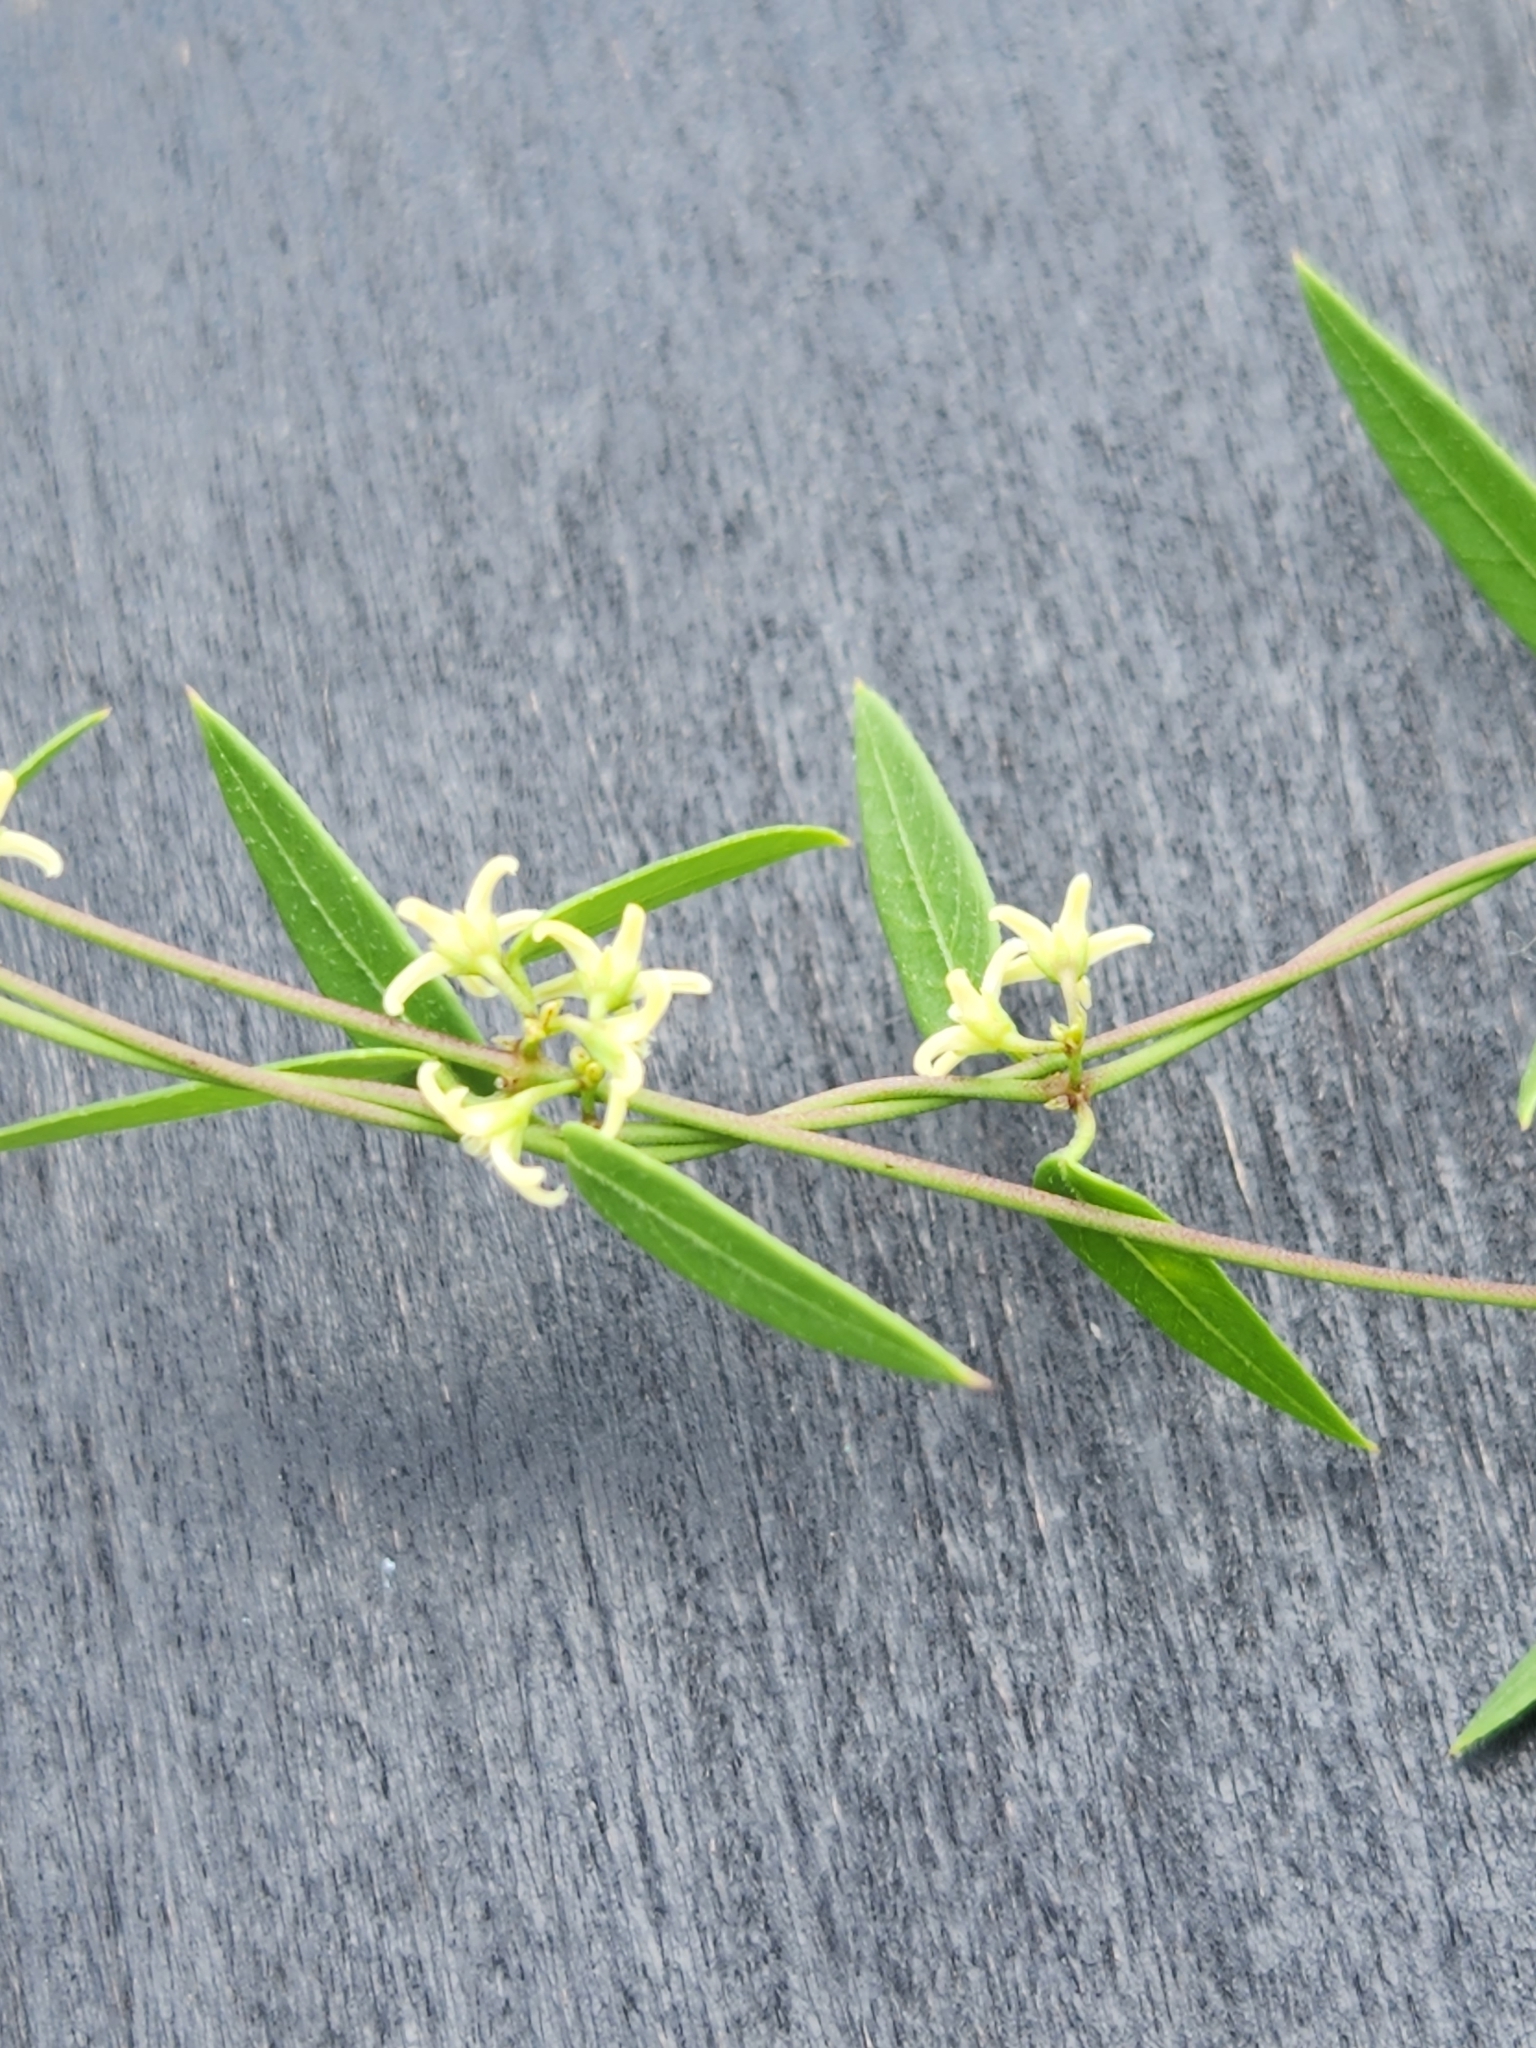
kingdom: Plantae
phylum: Tracheophyta
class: Magnoliopsida
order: Gentianales
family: Apocynaceae
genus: Metastelma
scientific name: Metastelma palmeri
